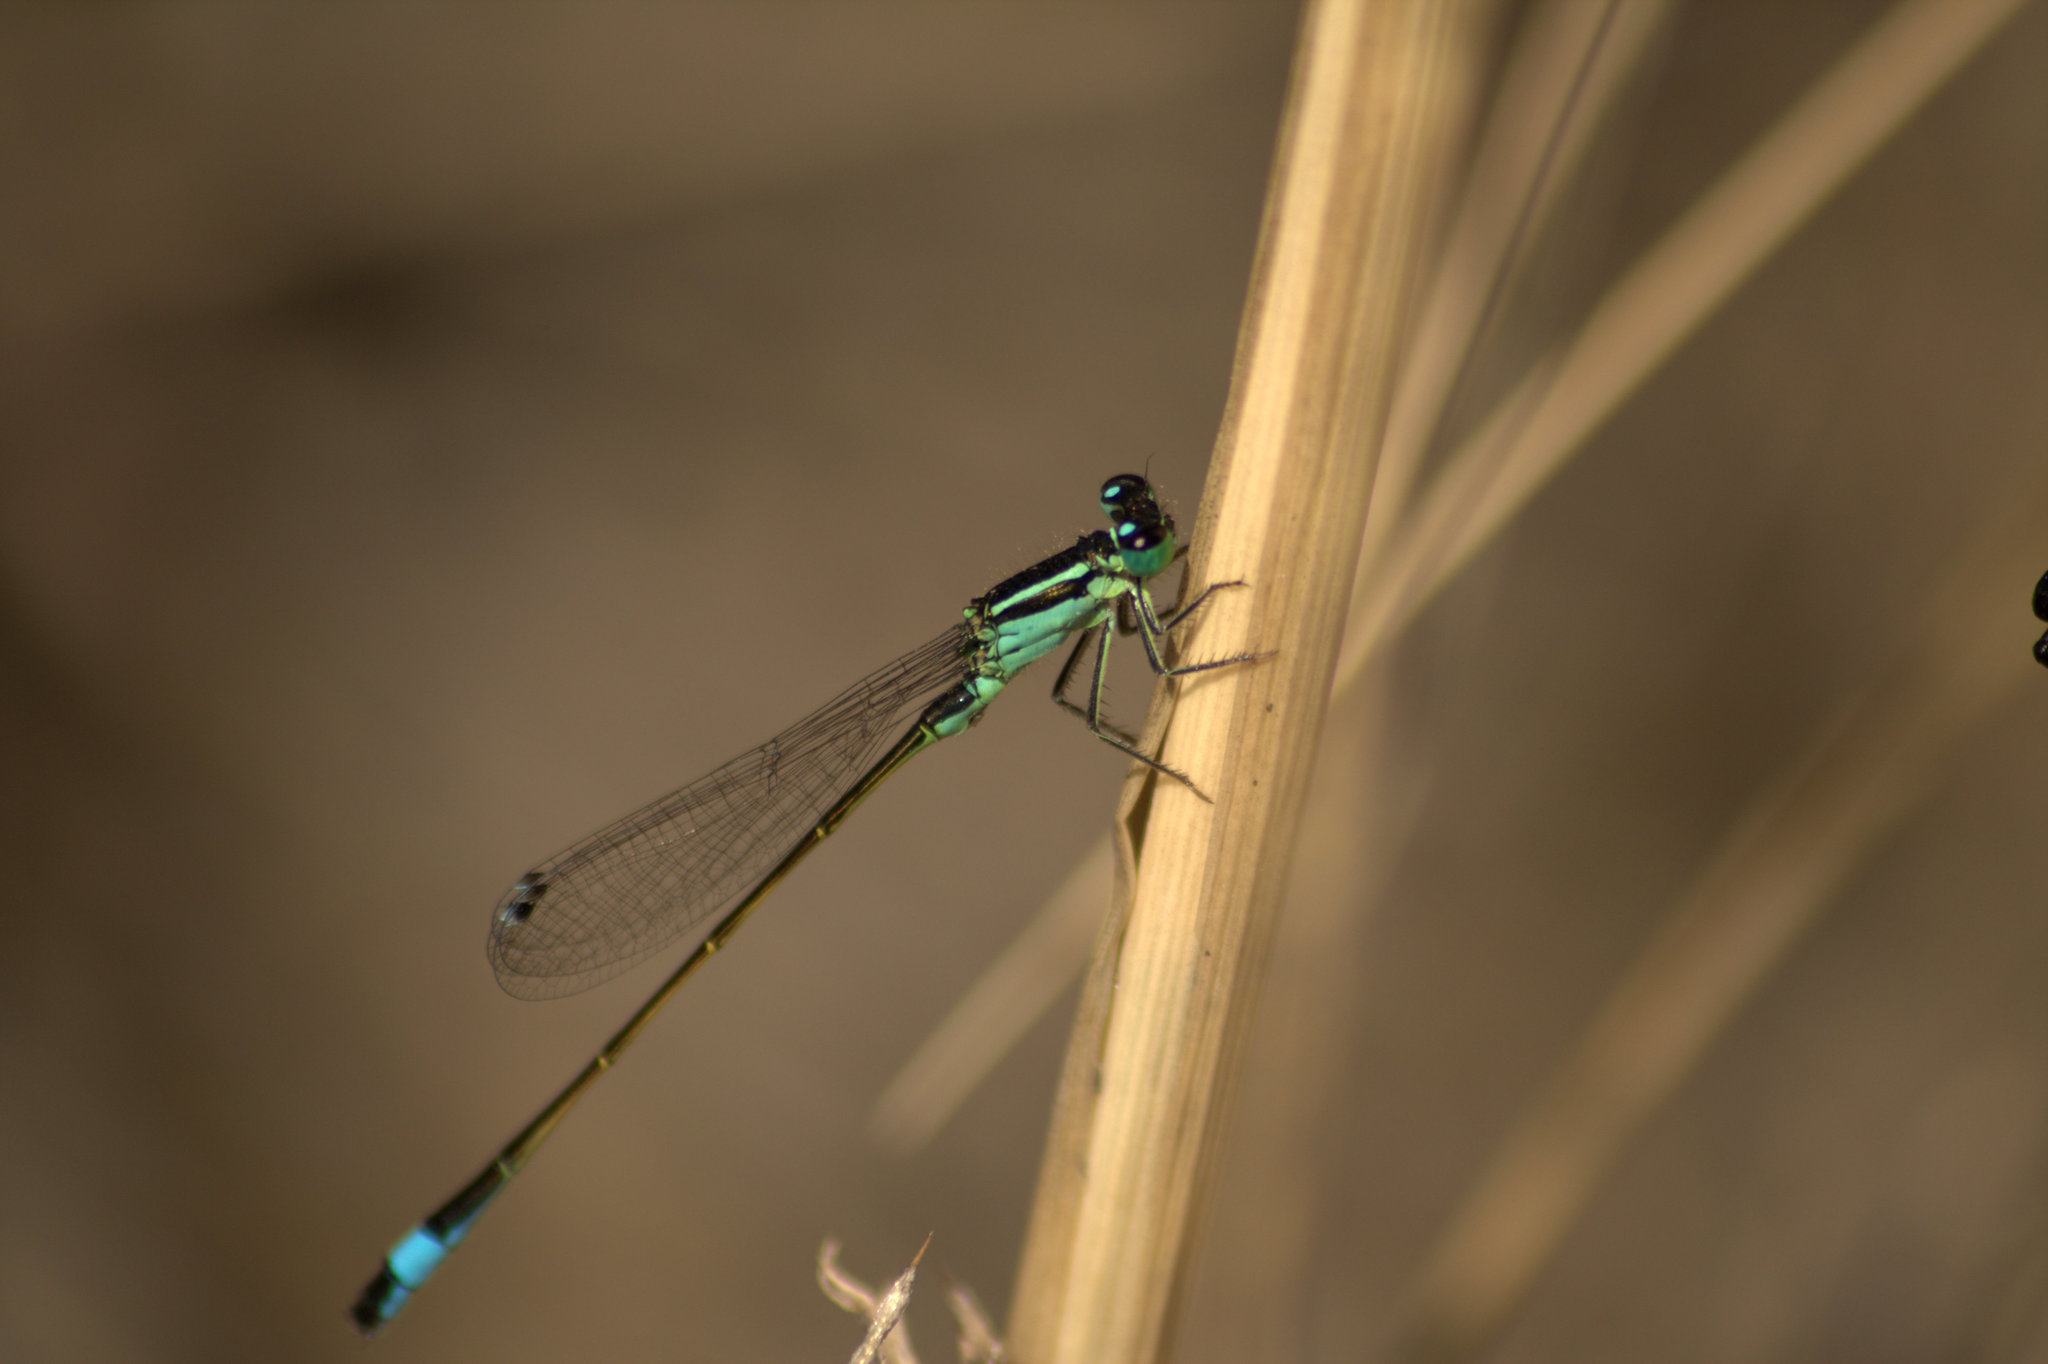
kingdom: Animalia
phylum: Arthropoda
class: Insecta
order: Odonata
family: Coenagrionidae
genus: Ischnura
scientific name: Ischnura elegans
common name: Blue-tailed damselfly
